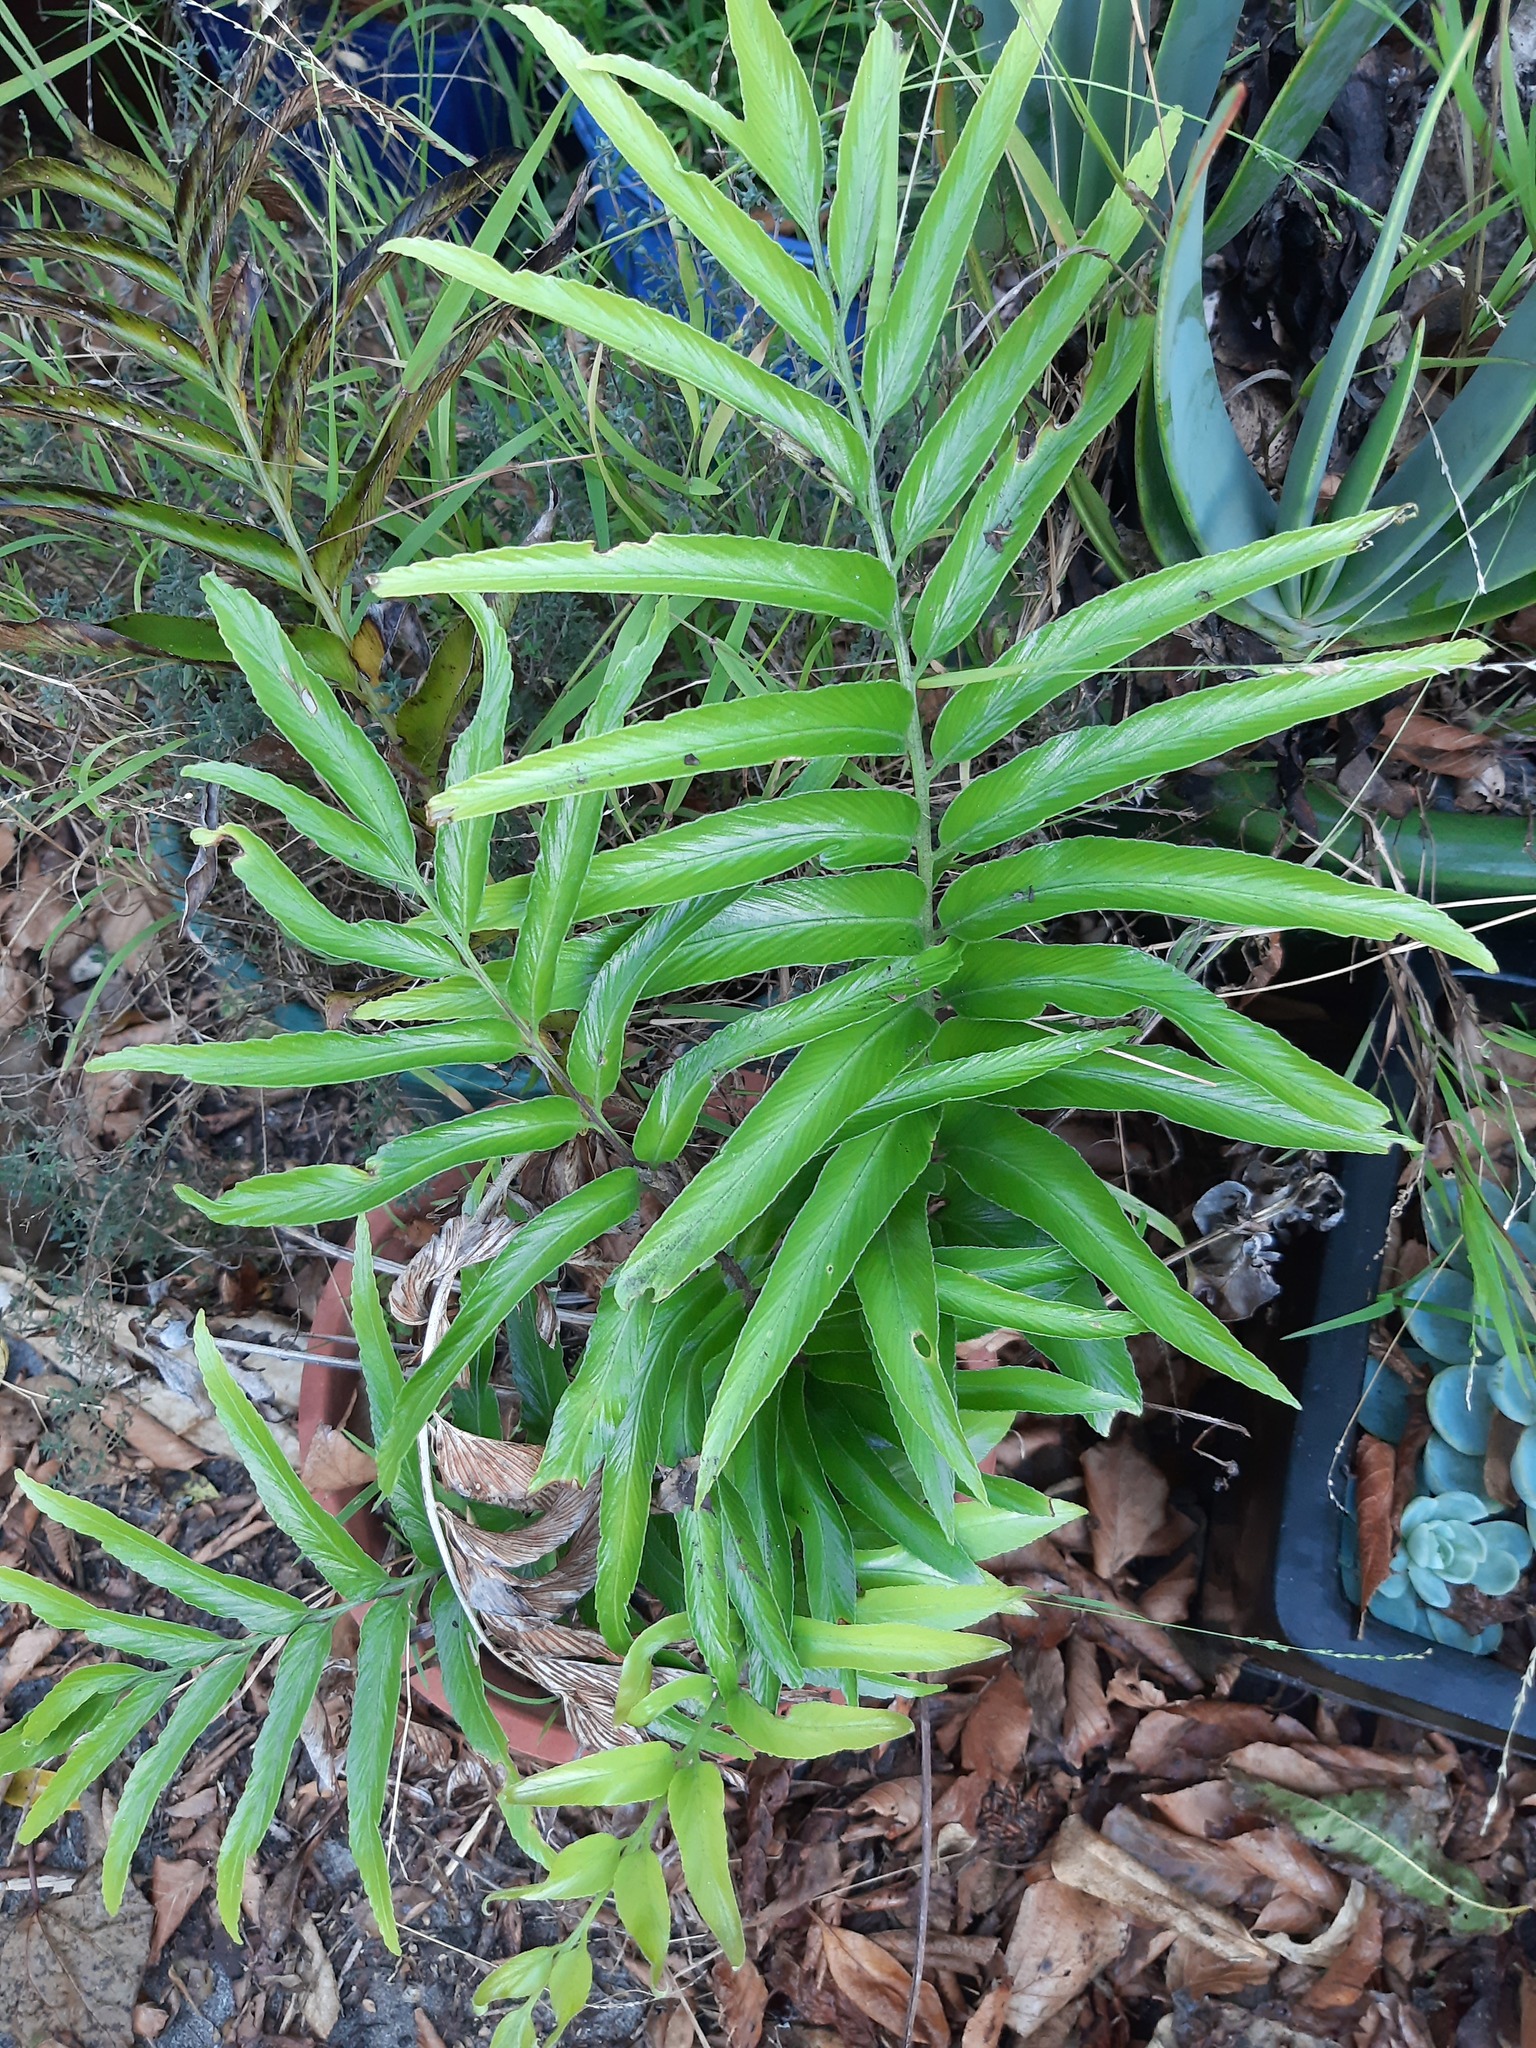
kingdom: Plantae
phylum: Tracheophyta
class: Polypodiopsida
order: Polypodiales
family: Aspleniaceae
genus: Asplenium
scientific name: Asplenium oblongifolium
